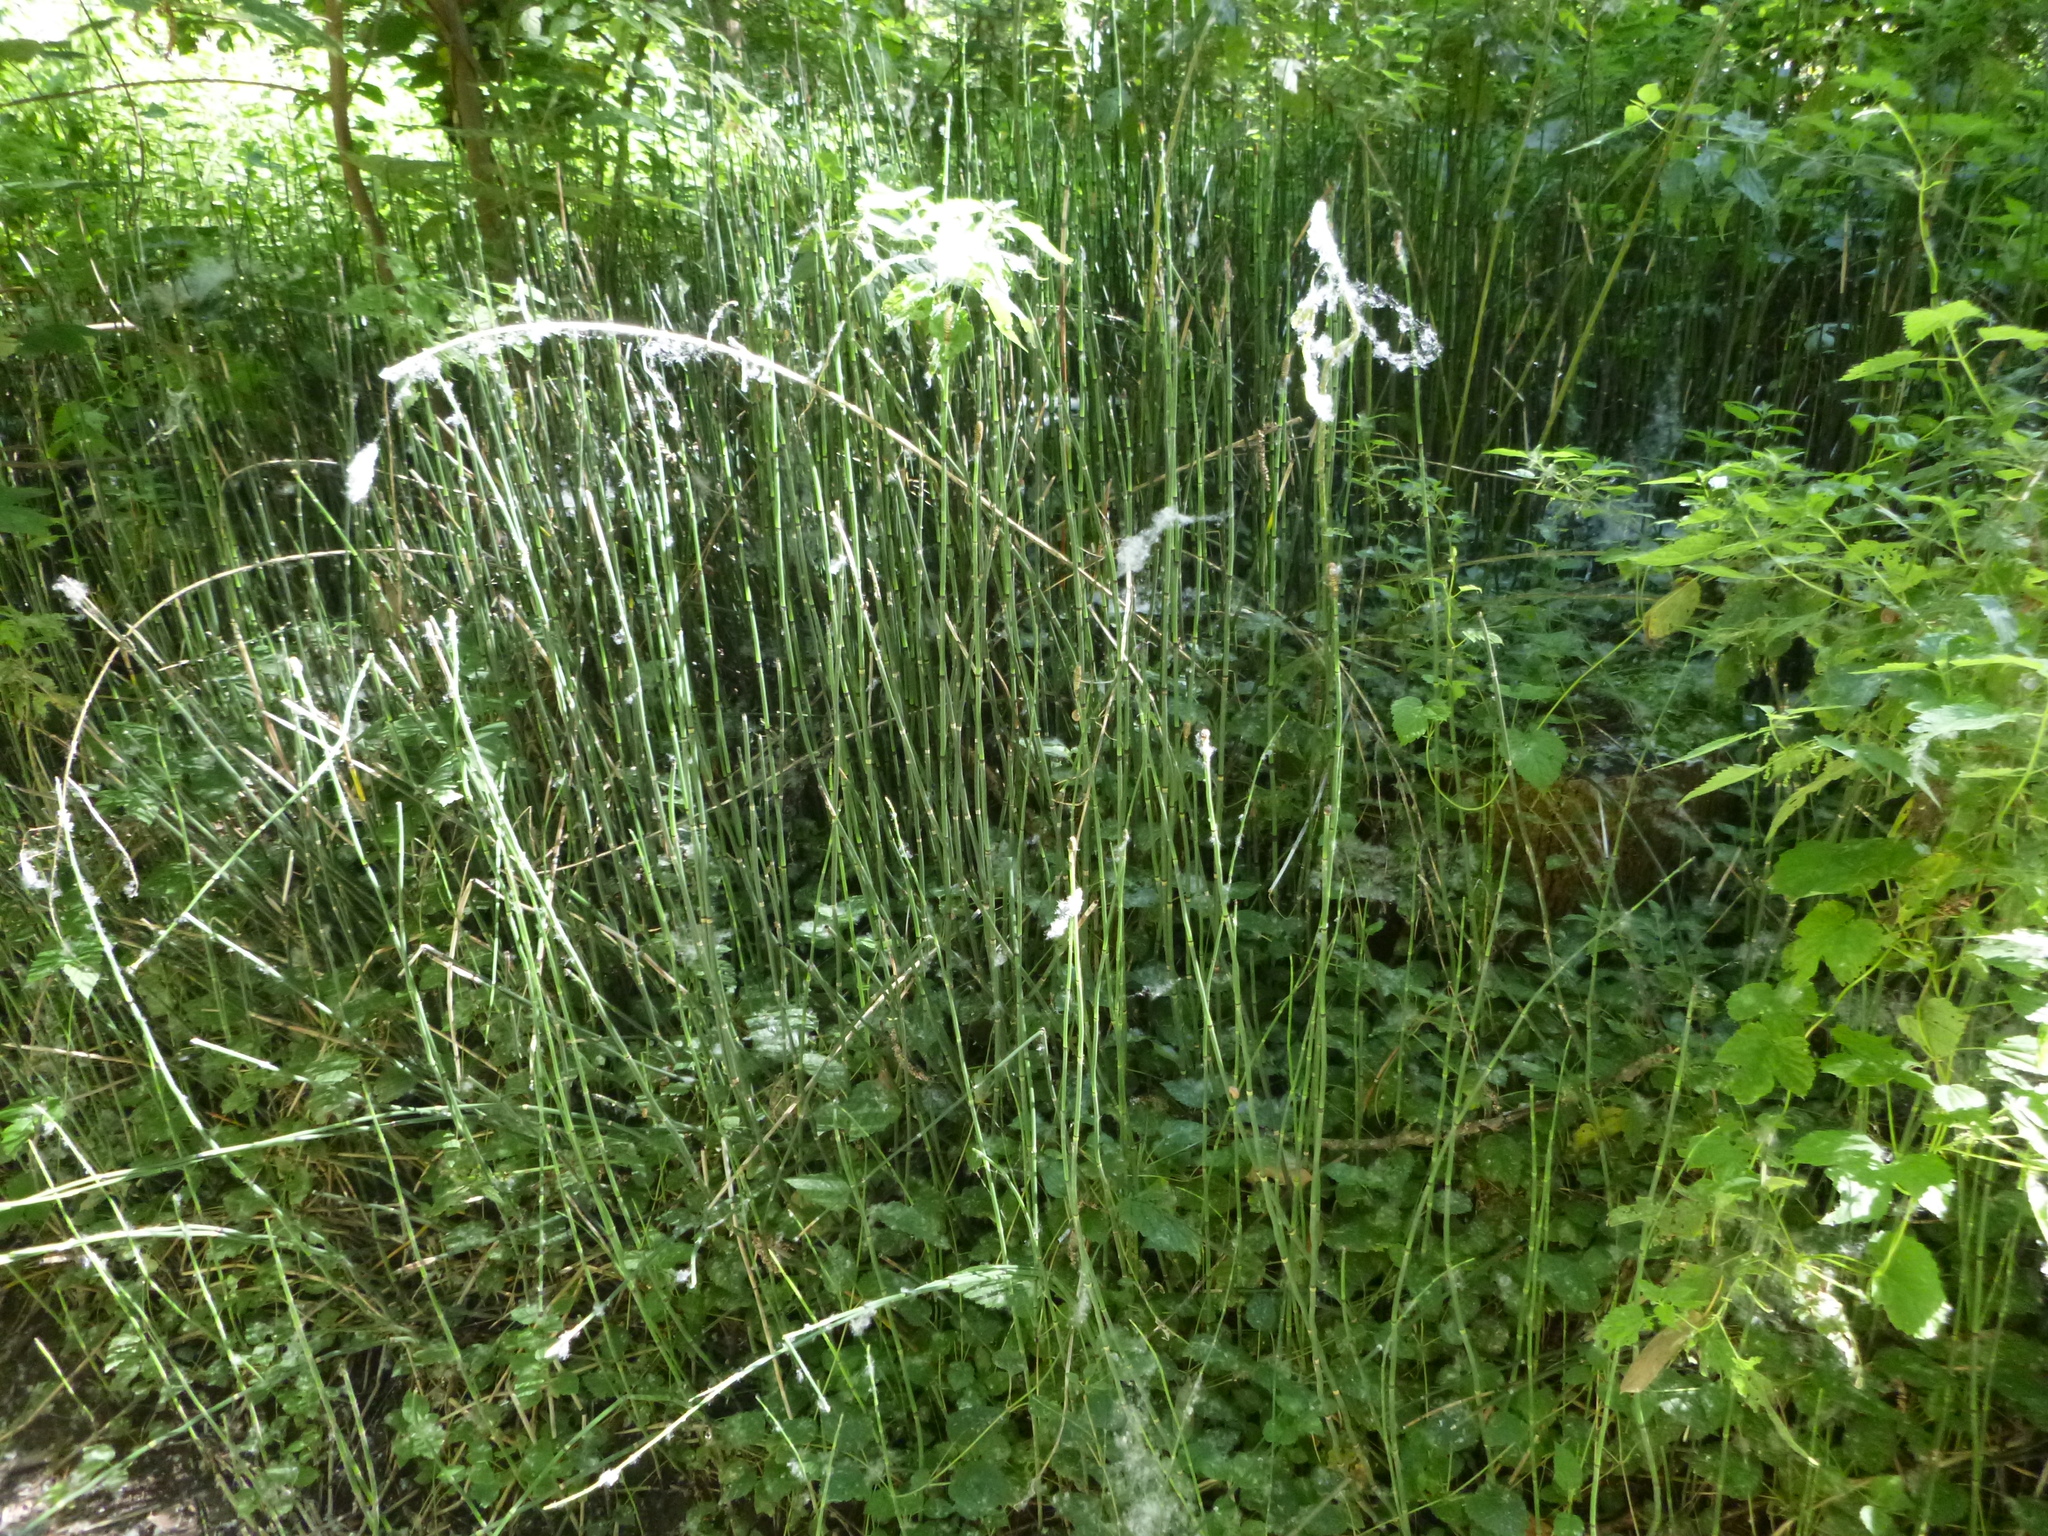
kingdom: Plantae
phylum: Tracheophyta
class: Polypodiopsida
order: Equisetales
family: Equisetaceae
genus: Equisetum
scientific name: Equisetum hyemale
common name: Rough horsetail
